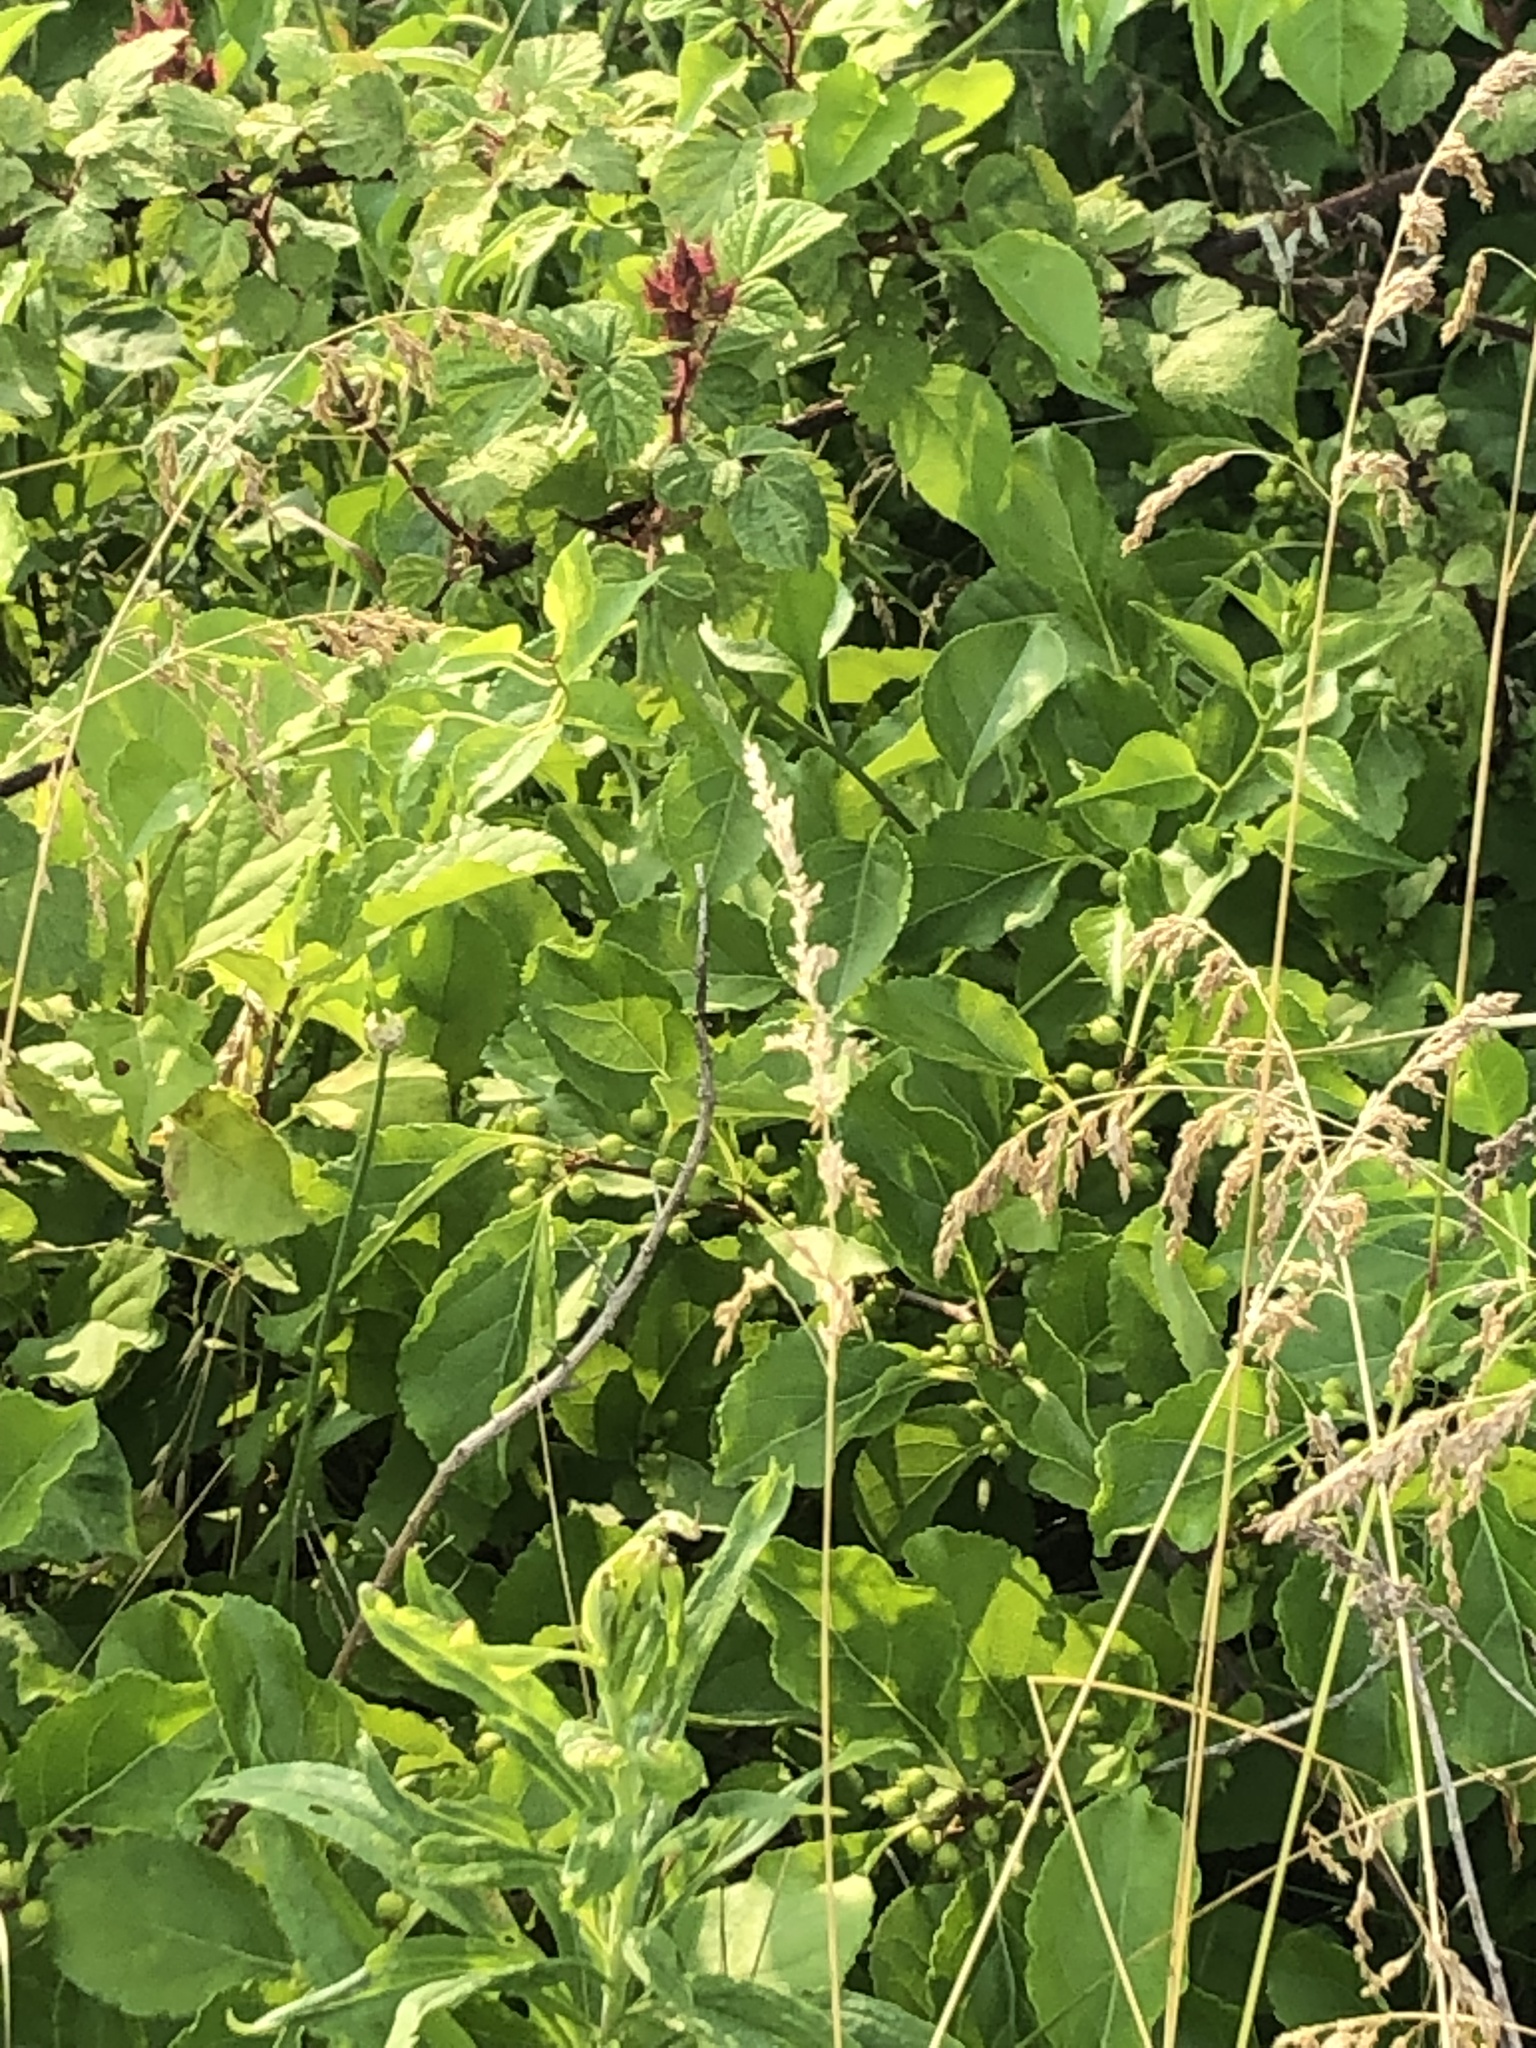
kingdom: Plantae
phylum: Tracheophyta
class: Magnoliopsida
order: Rosales
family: Rosaceae
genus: Rubus
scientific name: Rubus phoenicolasius
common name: Japanese wineberry
